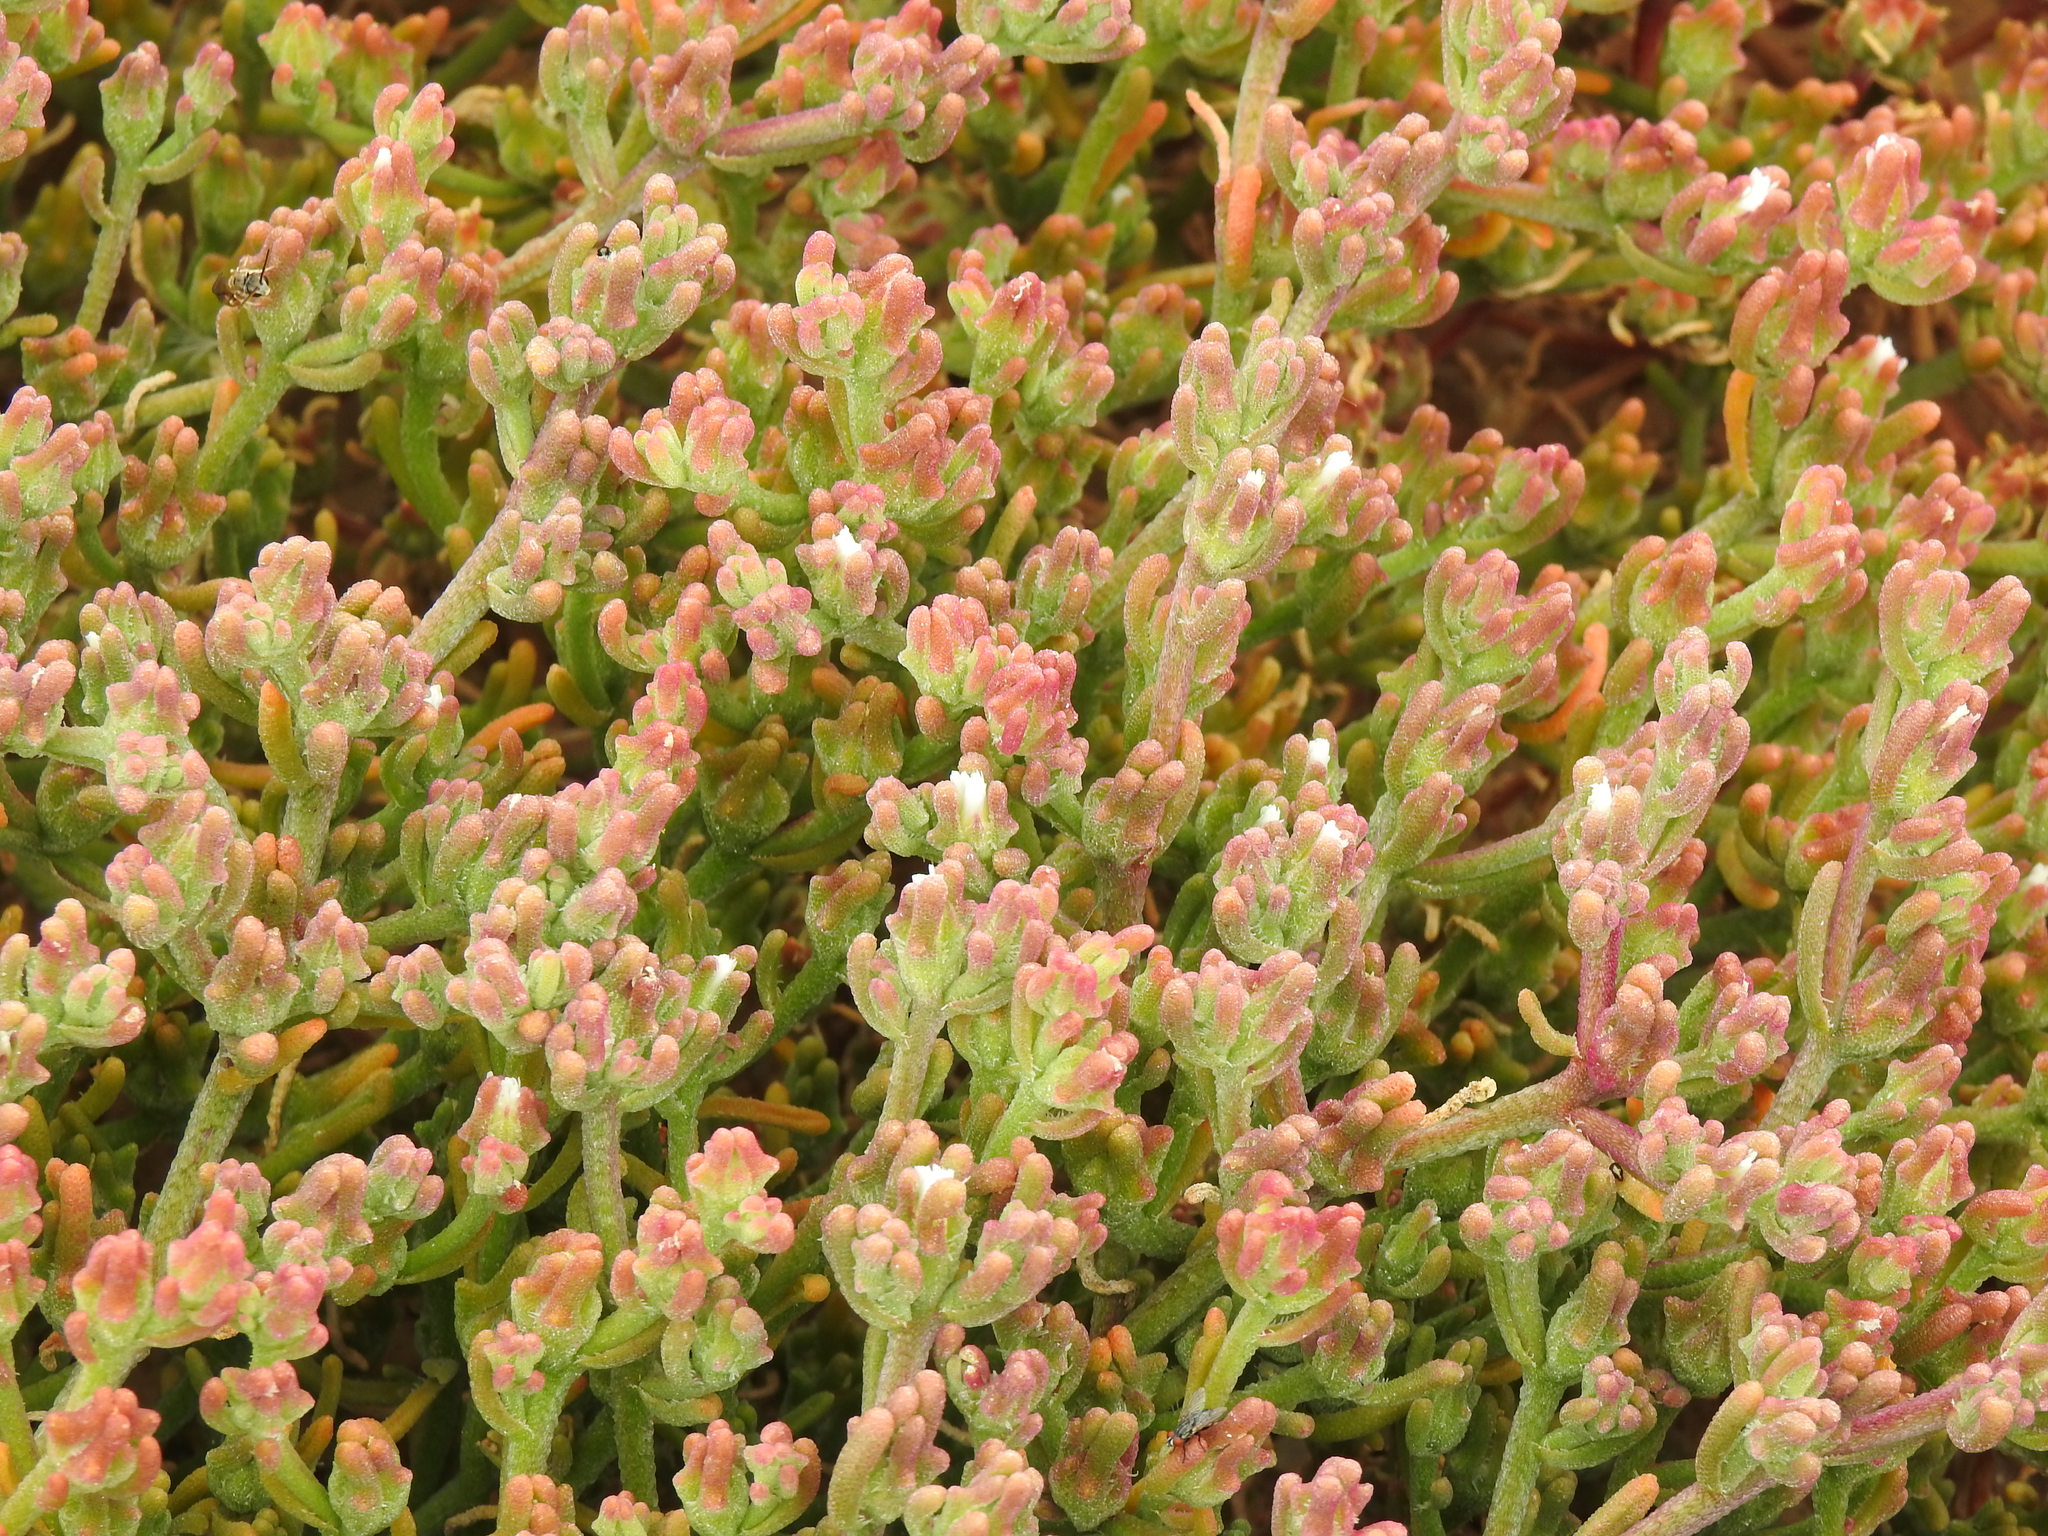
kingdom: Plantae
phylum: Tracheophyta
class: Magnoliopsida
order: Caryophyllales
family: Aizoaceae
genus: Mesembryanthemum
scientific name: Mesembryanthemum nodiflorum
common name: Slenderleaf iceplant
